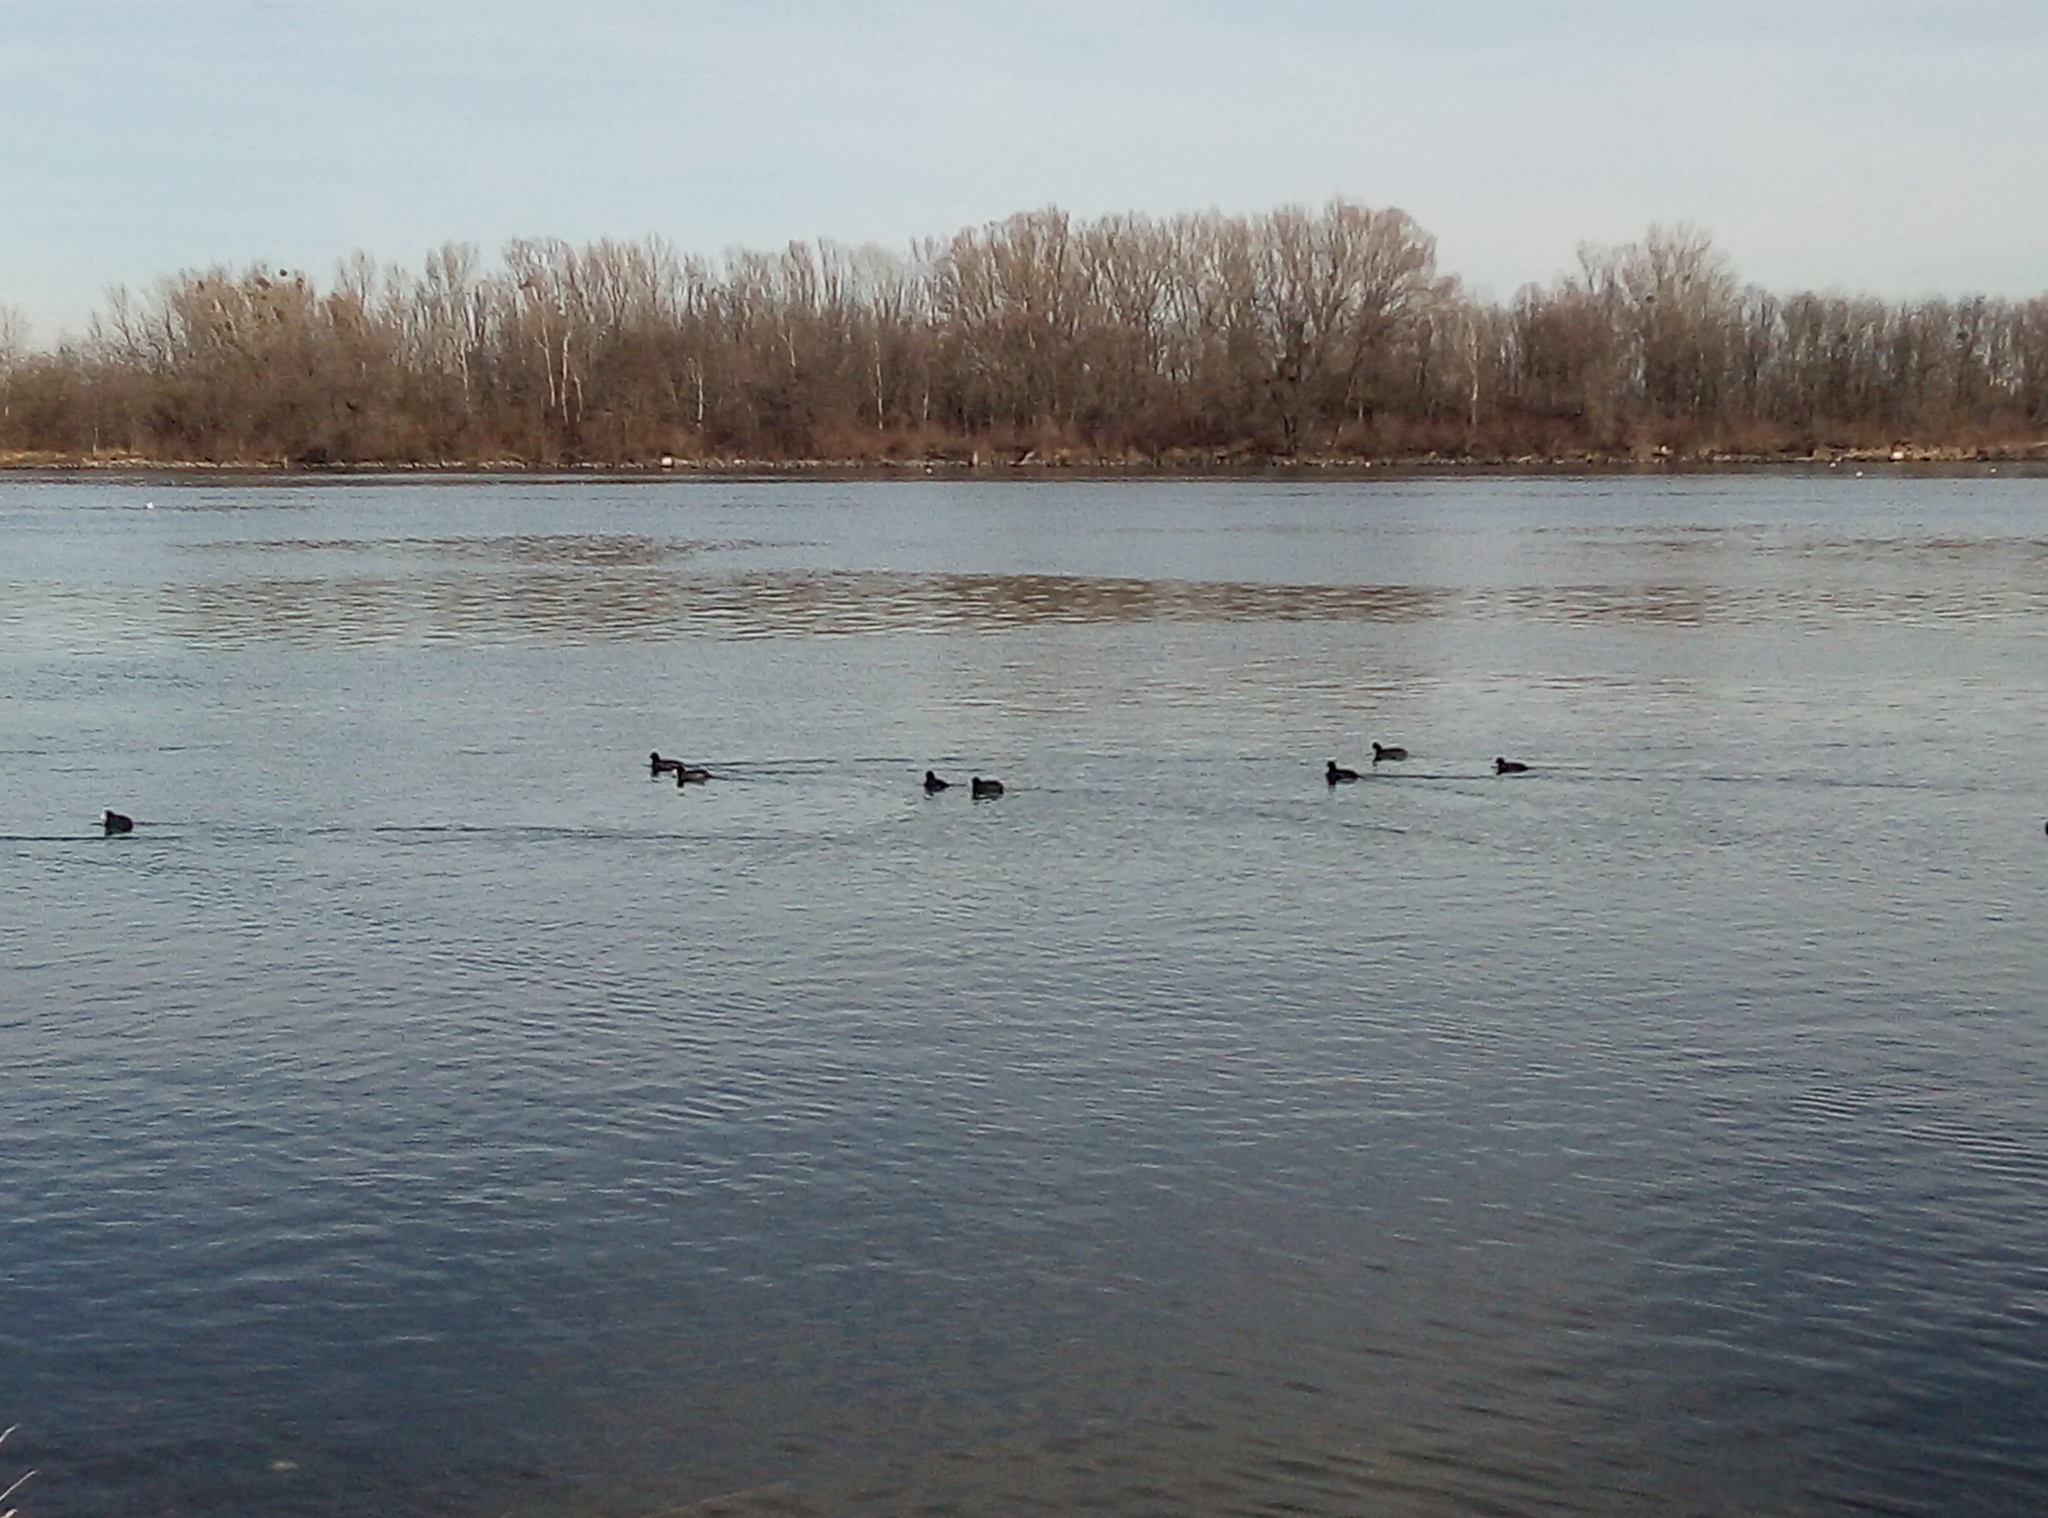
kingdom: Animalia
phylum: Chordata
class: Aves
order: Gruiformes
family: Rallidae
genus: Fulica
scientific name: Fulica atra
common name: Eurasian coot
